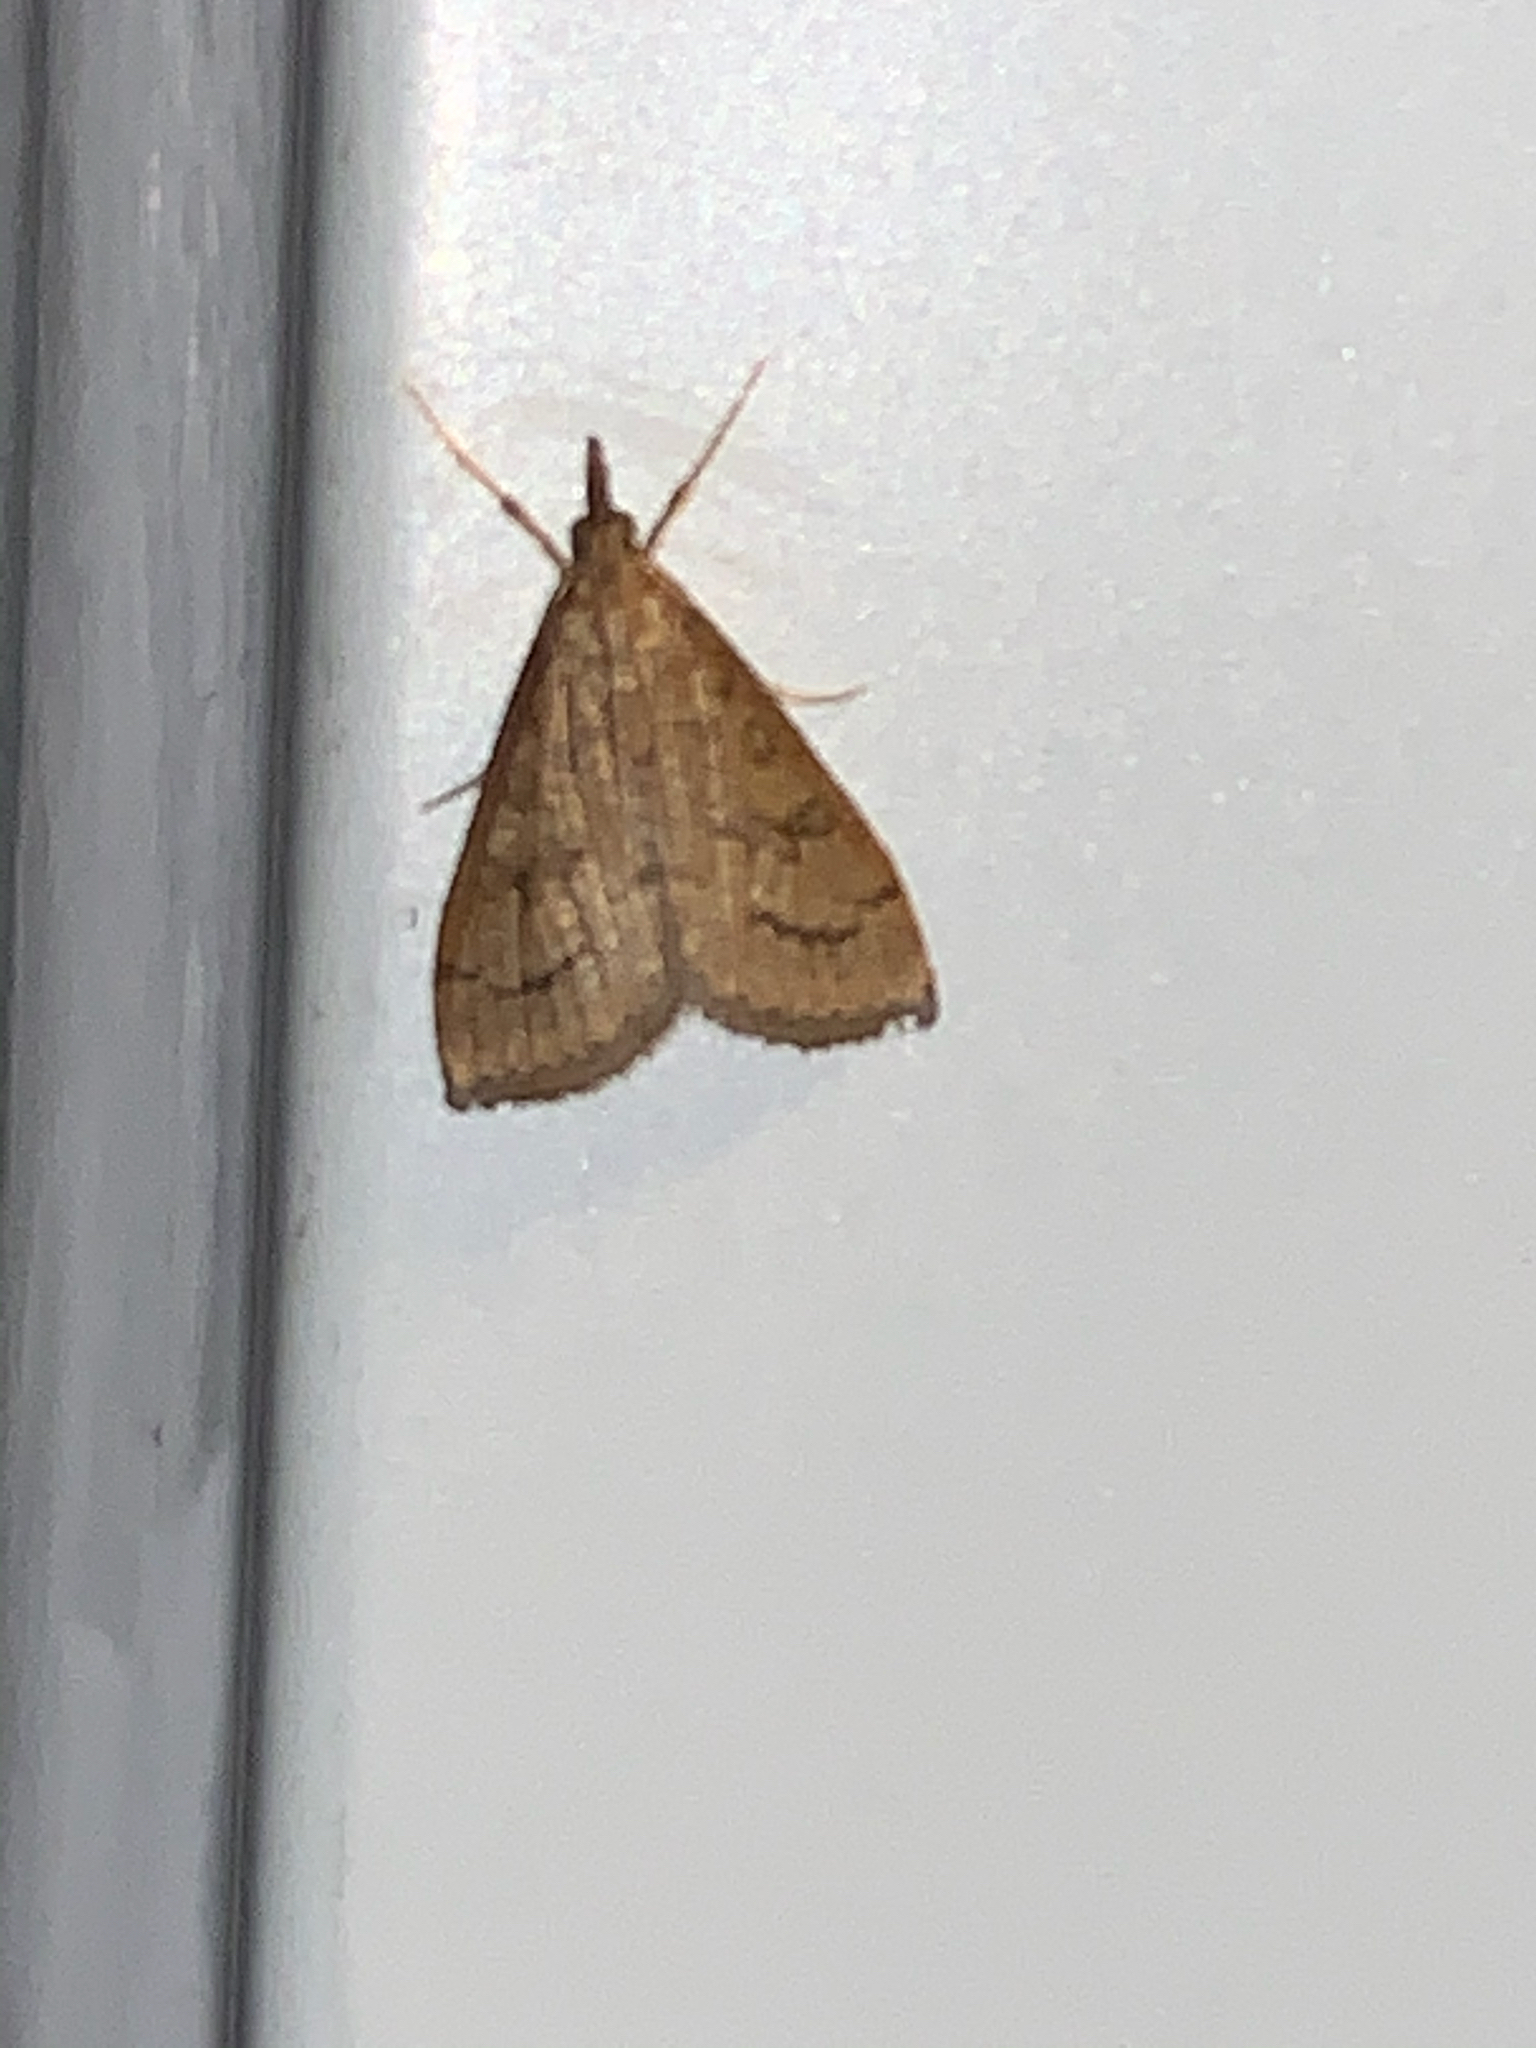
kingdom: Animalia
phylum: Arthropoda
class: Insecta
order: Lepidoptera
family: Crambidae
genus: Udea
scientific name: Udea rubigalis
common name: Celery leaftier moth
